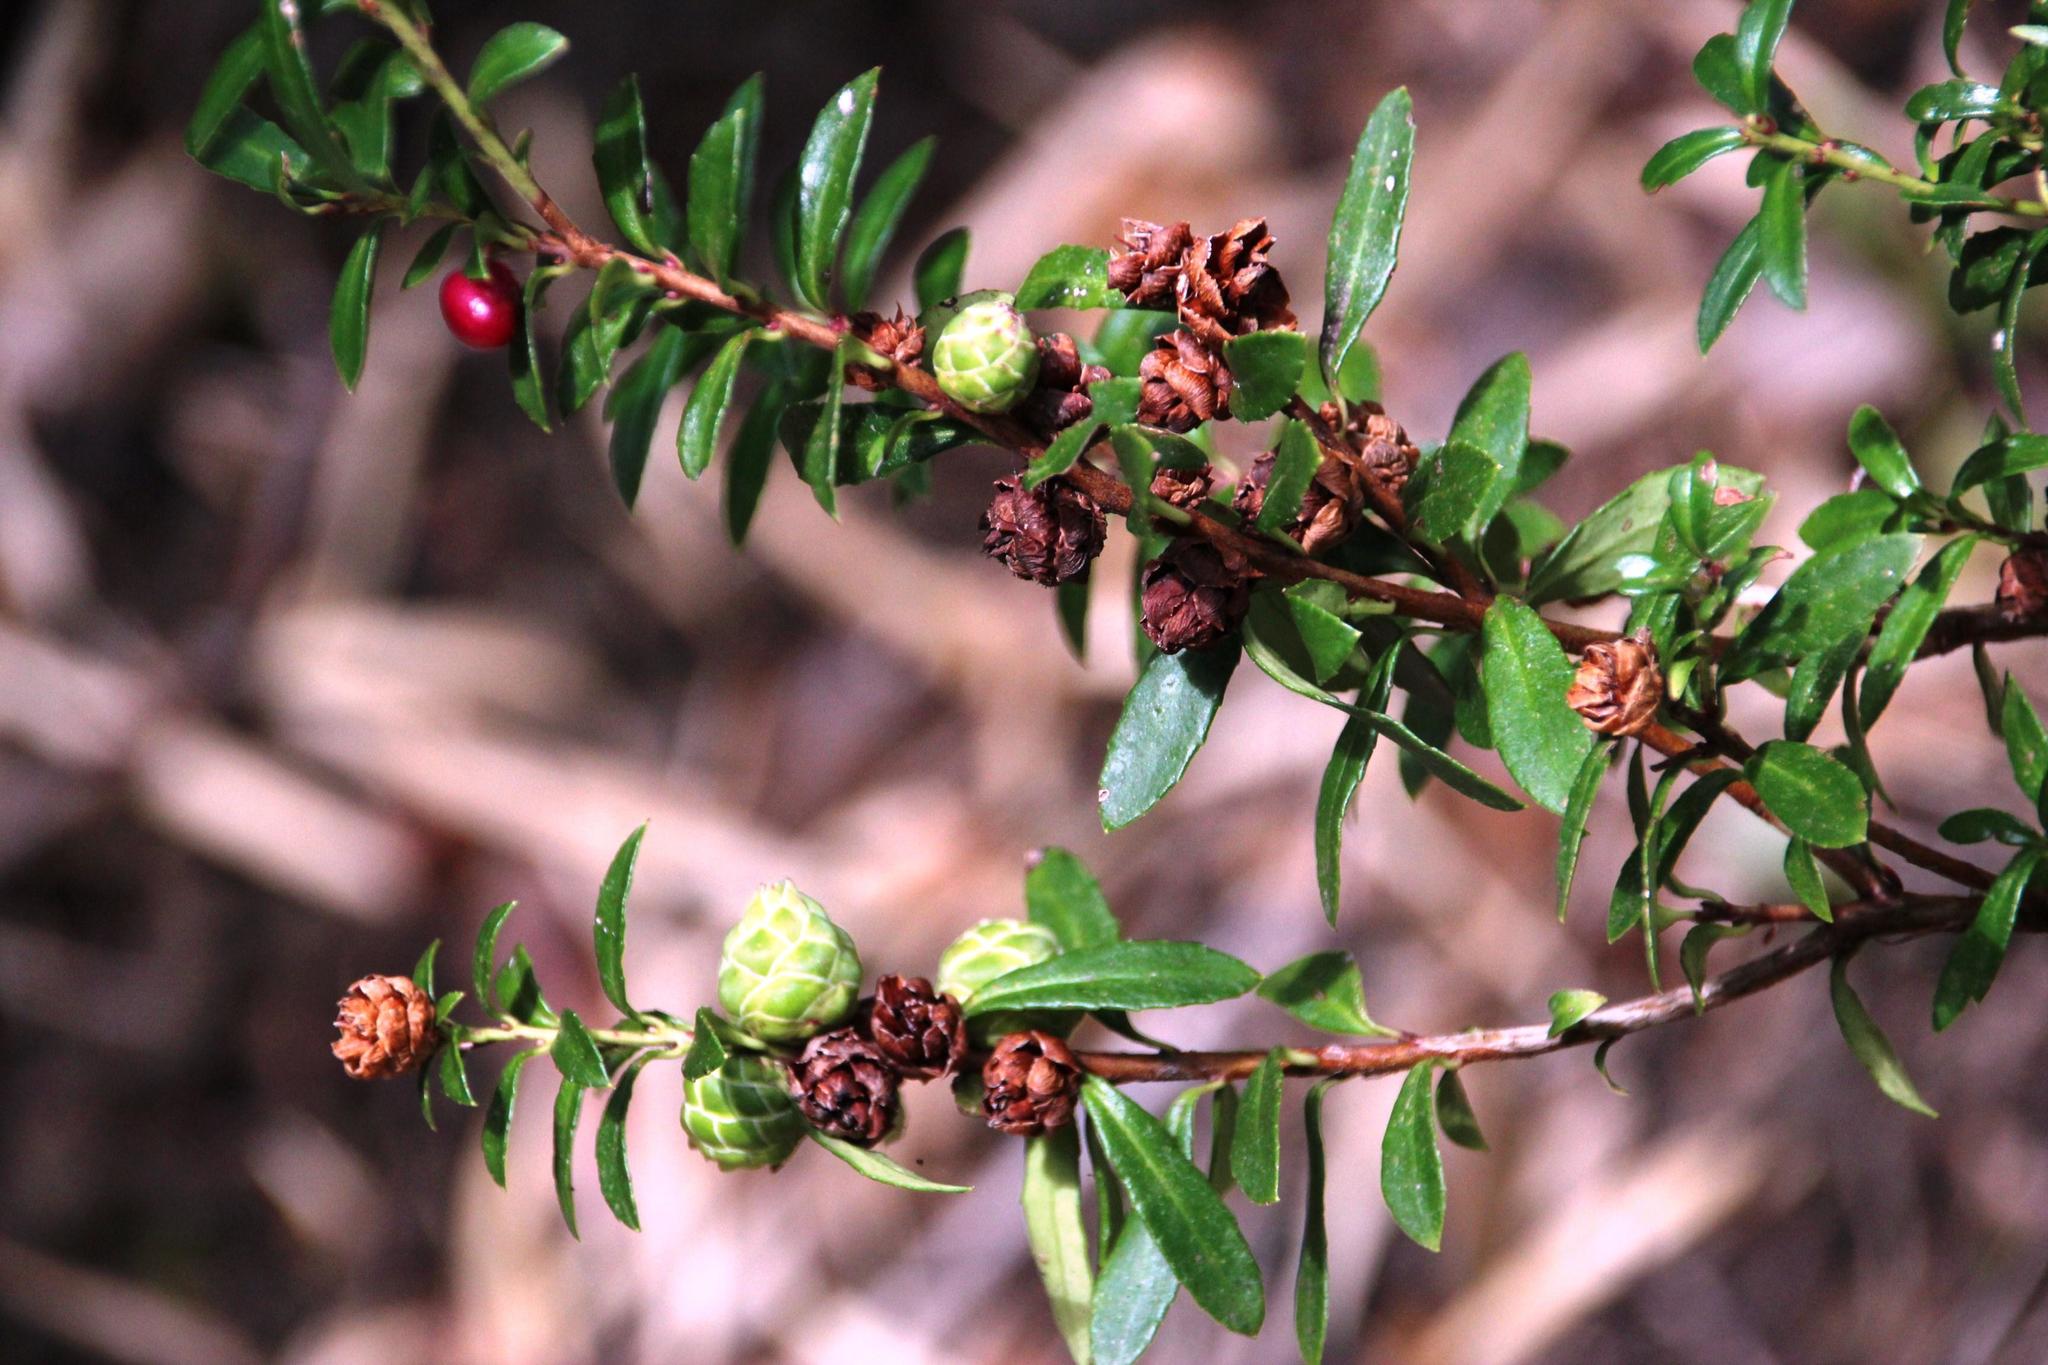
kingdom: Plantae
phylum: Tracheophyta
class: Magnoliopsida
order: Ericales
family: Ericaceae
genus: Gaultheria
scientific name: Gaultheria mucronata
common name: Prickly heath
